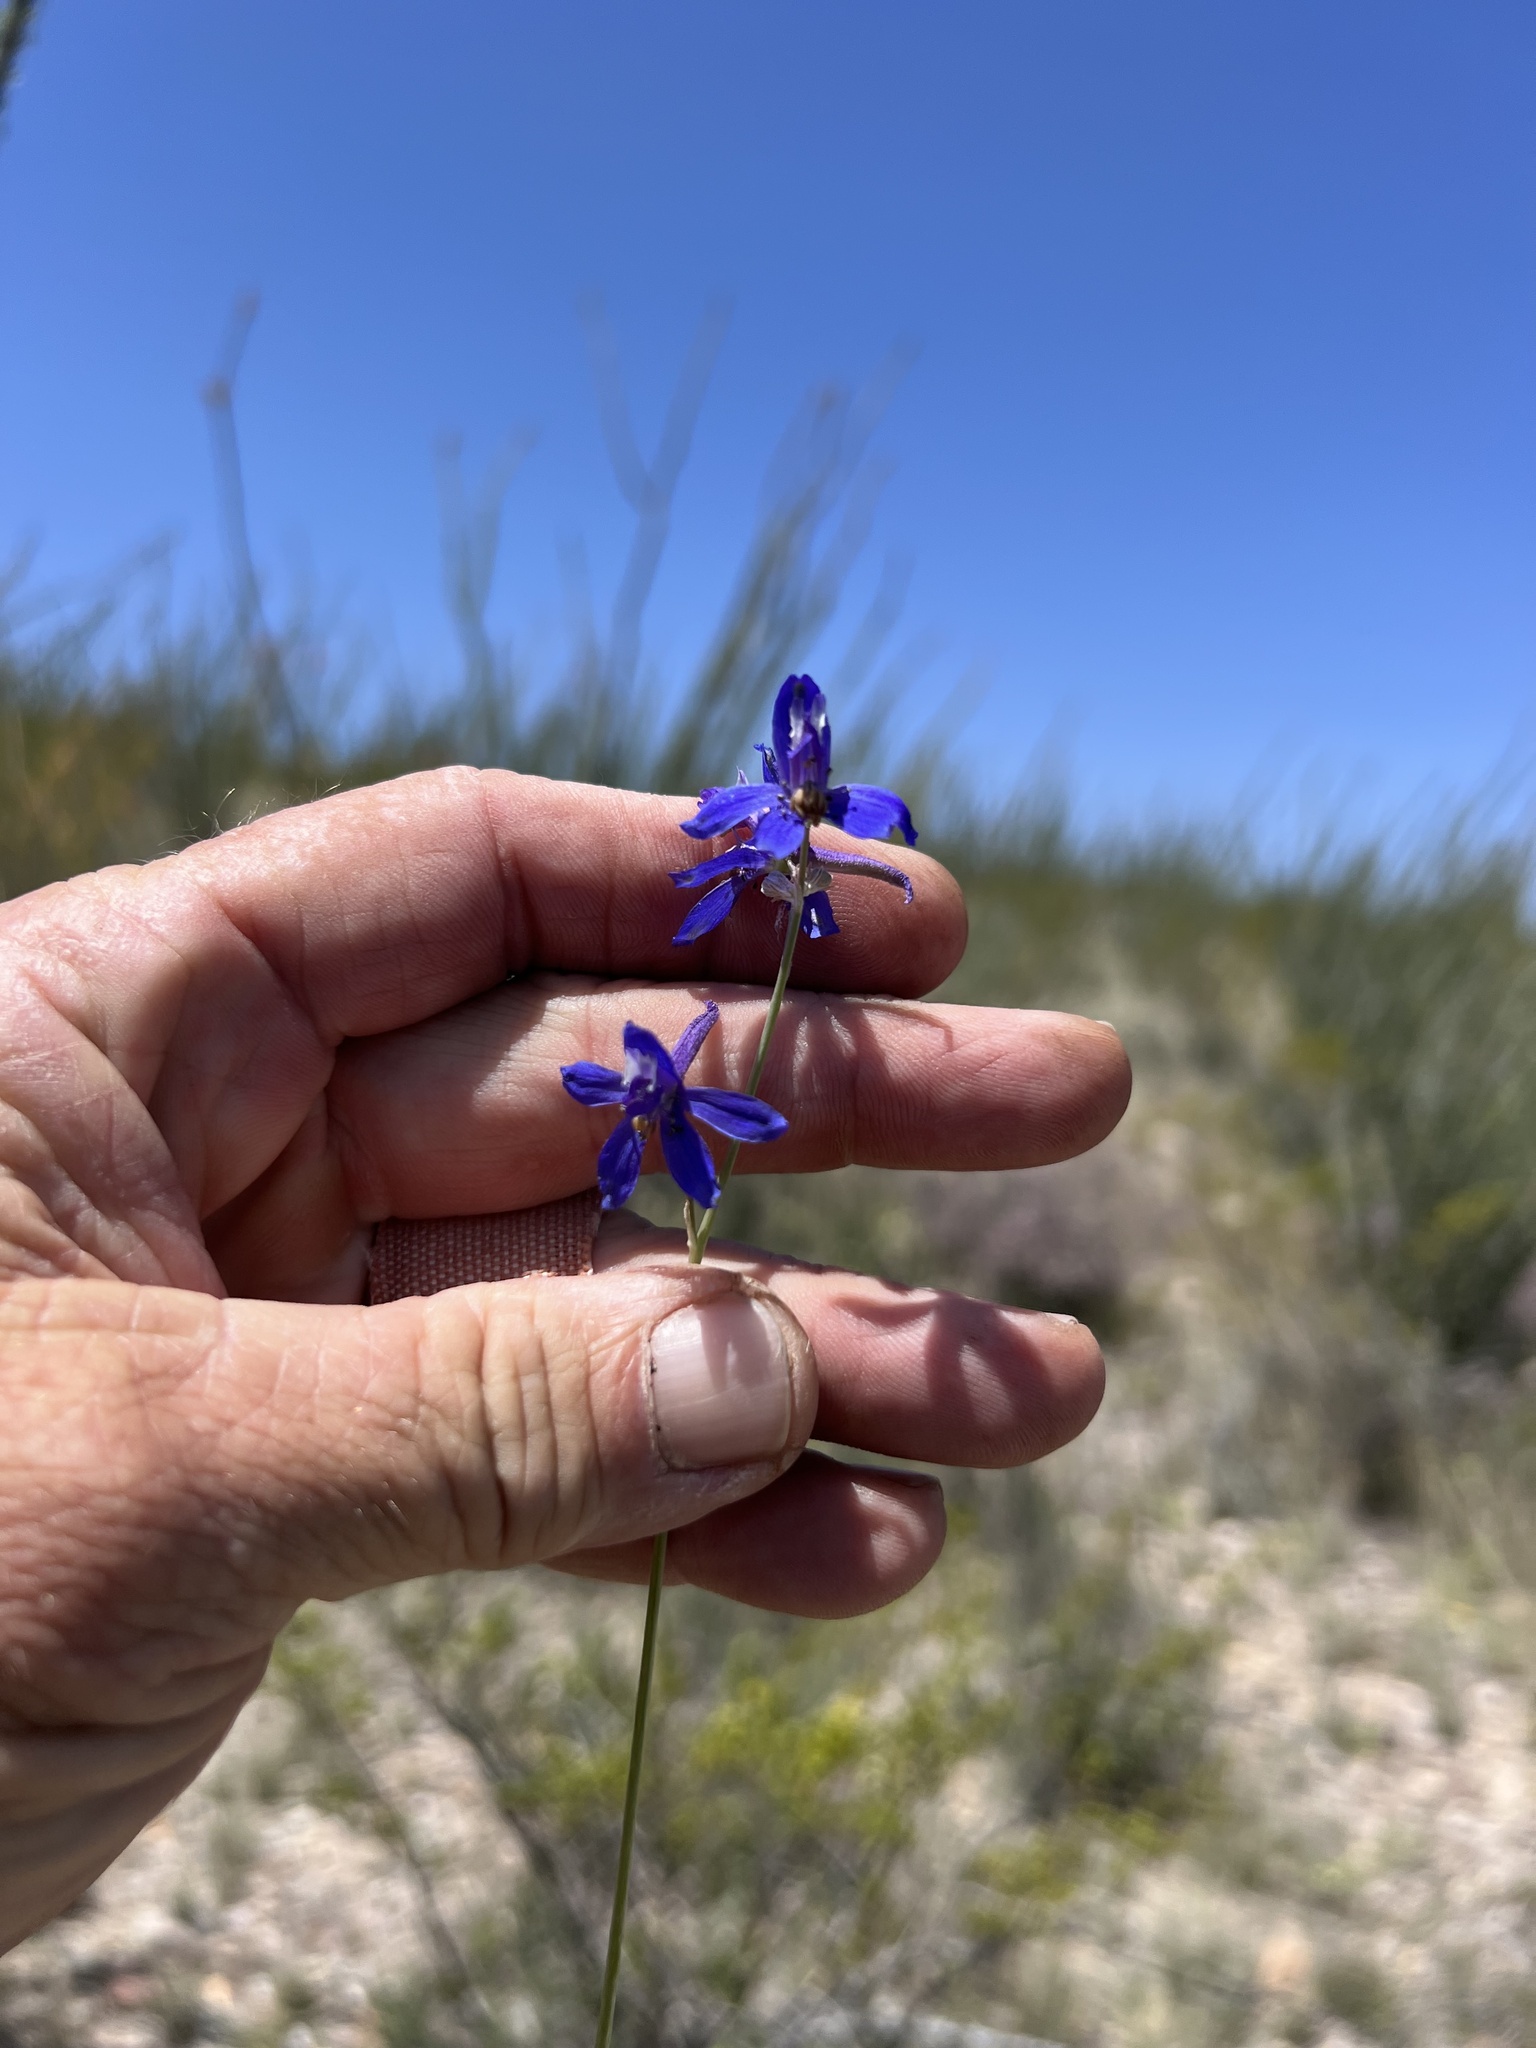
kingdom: Plantae
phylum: Tracheophyta
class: Magnoliopsida
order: Ranunculales
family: Ranunculaceae
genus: Delphinium
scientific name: Delphinium scaposum
